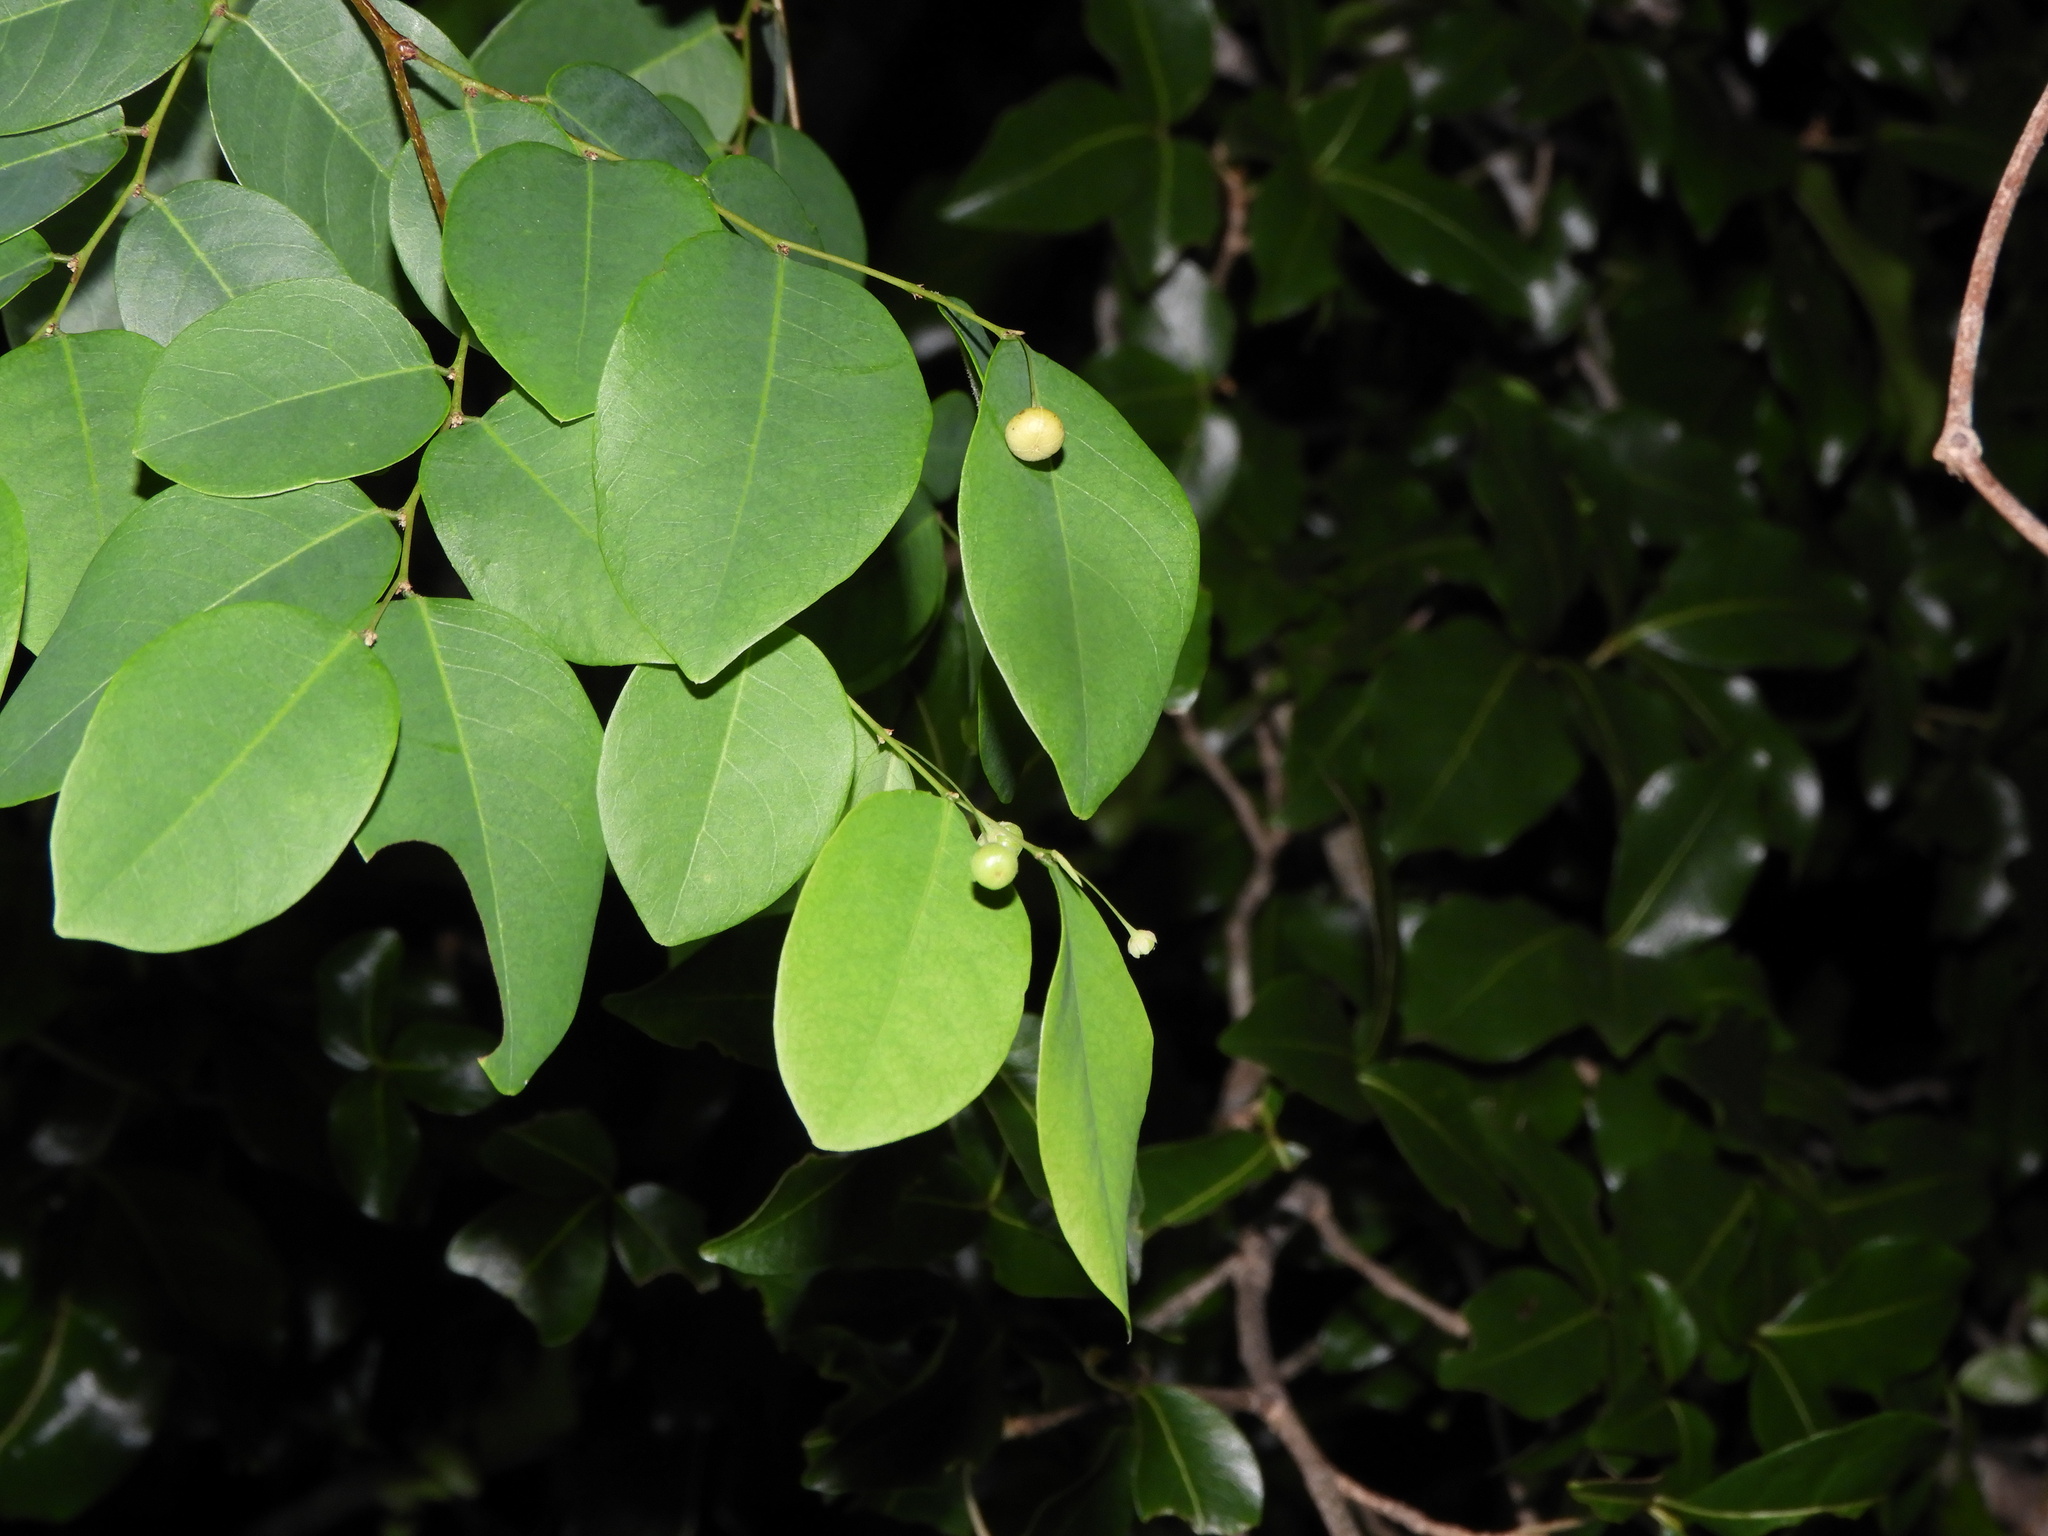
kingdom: Plantae
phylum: Tracheophyta
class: Magnoliopsida
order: Malpighiales
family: Phyllanthaceae
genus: Phyllanthus
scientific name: Phyllanthus mocinoanus
